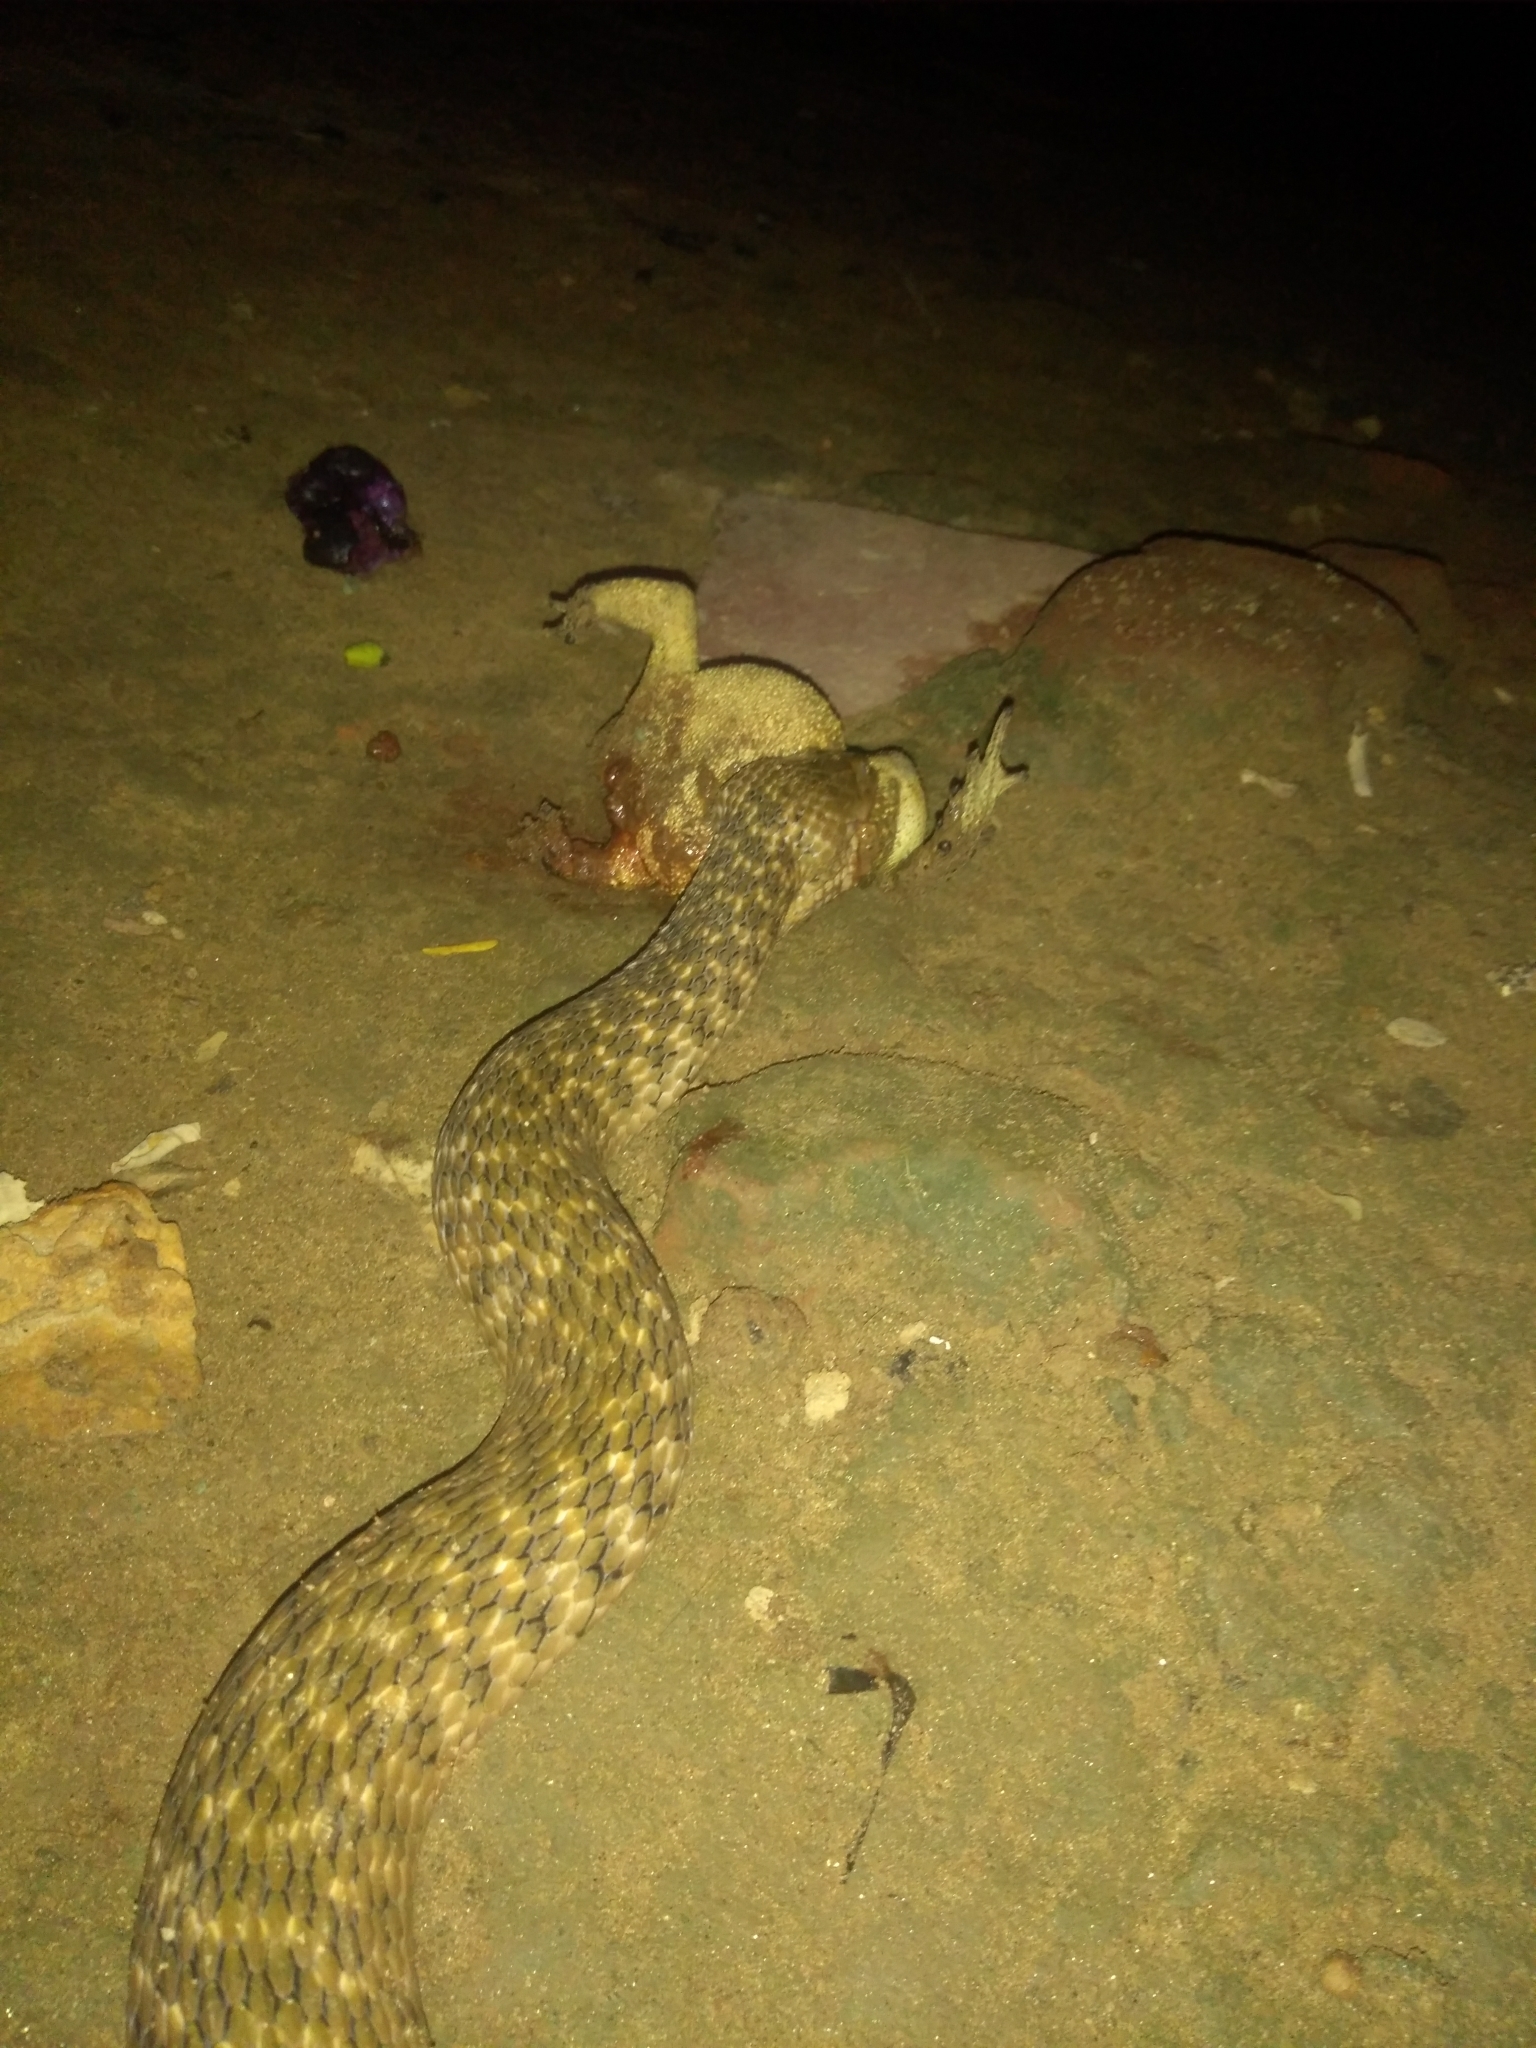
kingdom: Animalia
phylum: Chordata
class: Squamata
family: Colubridae
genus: Fowlea
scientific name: Fowlea piscator
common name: Asiatic water snake
